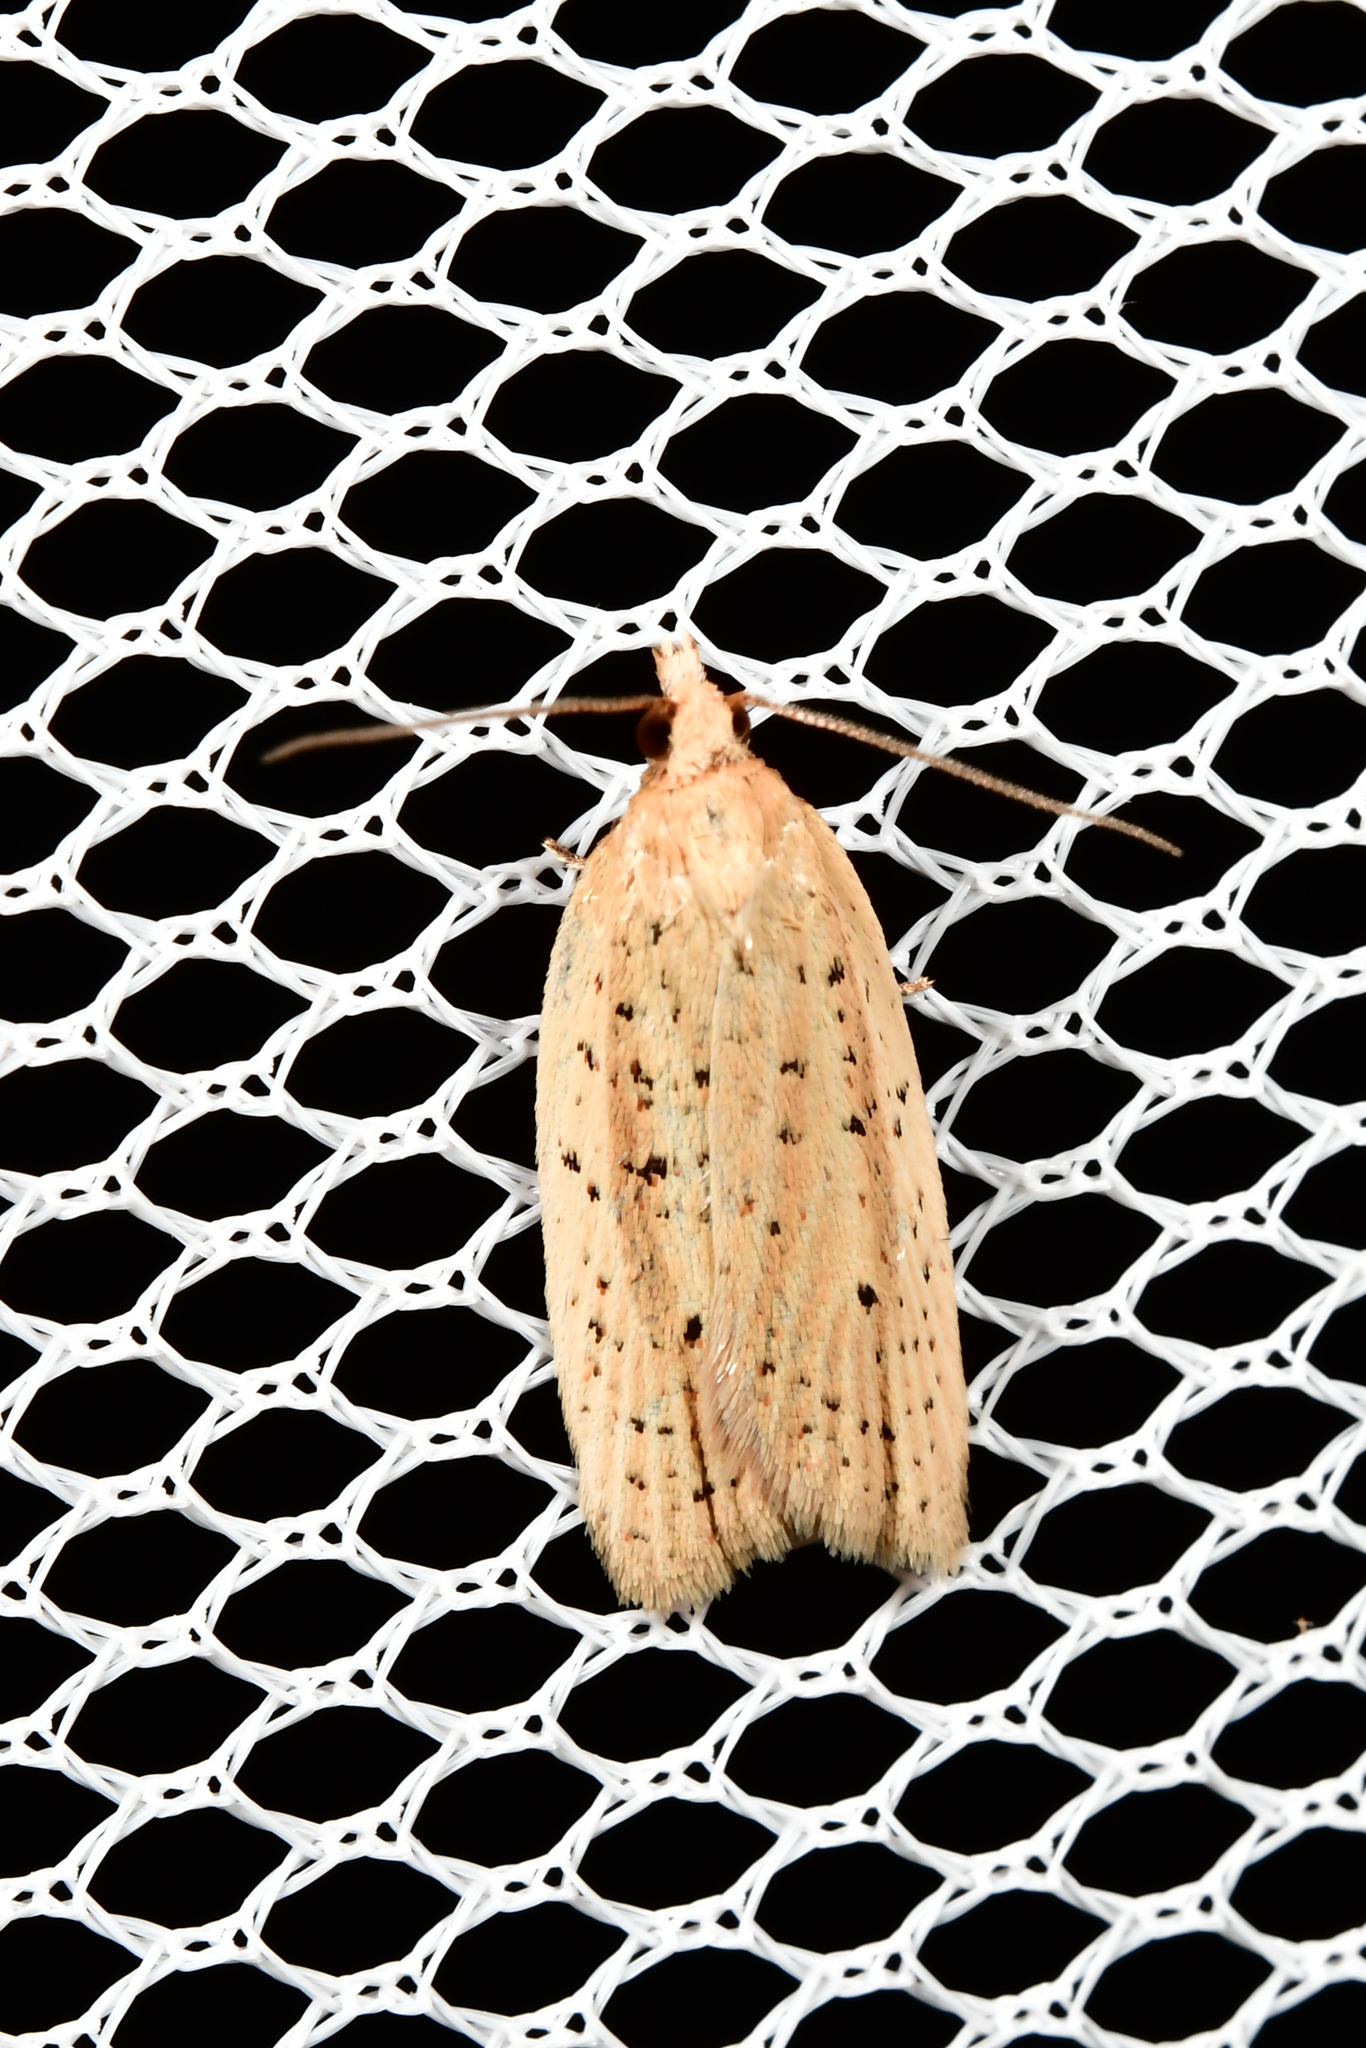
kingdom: Animalia
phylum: Arthropoda
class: Insecta
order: Lepidoptera
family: Tortricidae
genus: Clepsis
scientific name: Clepsis
